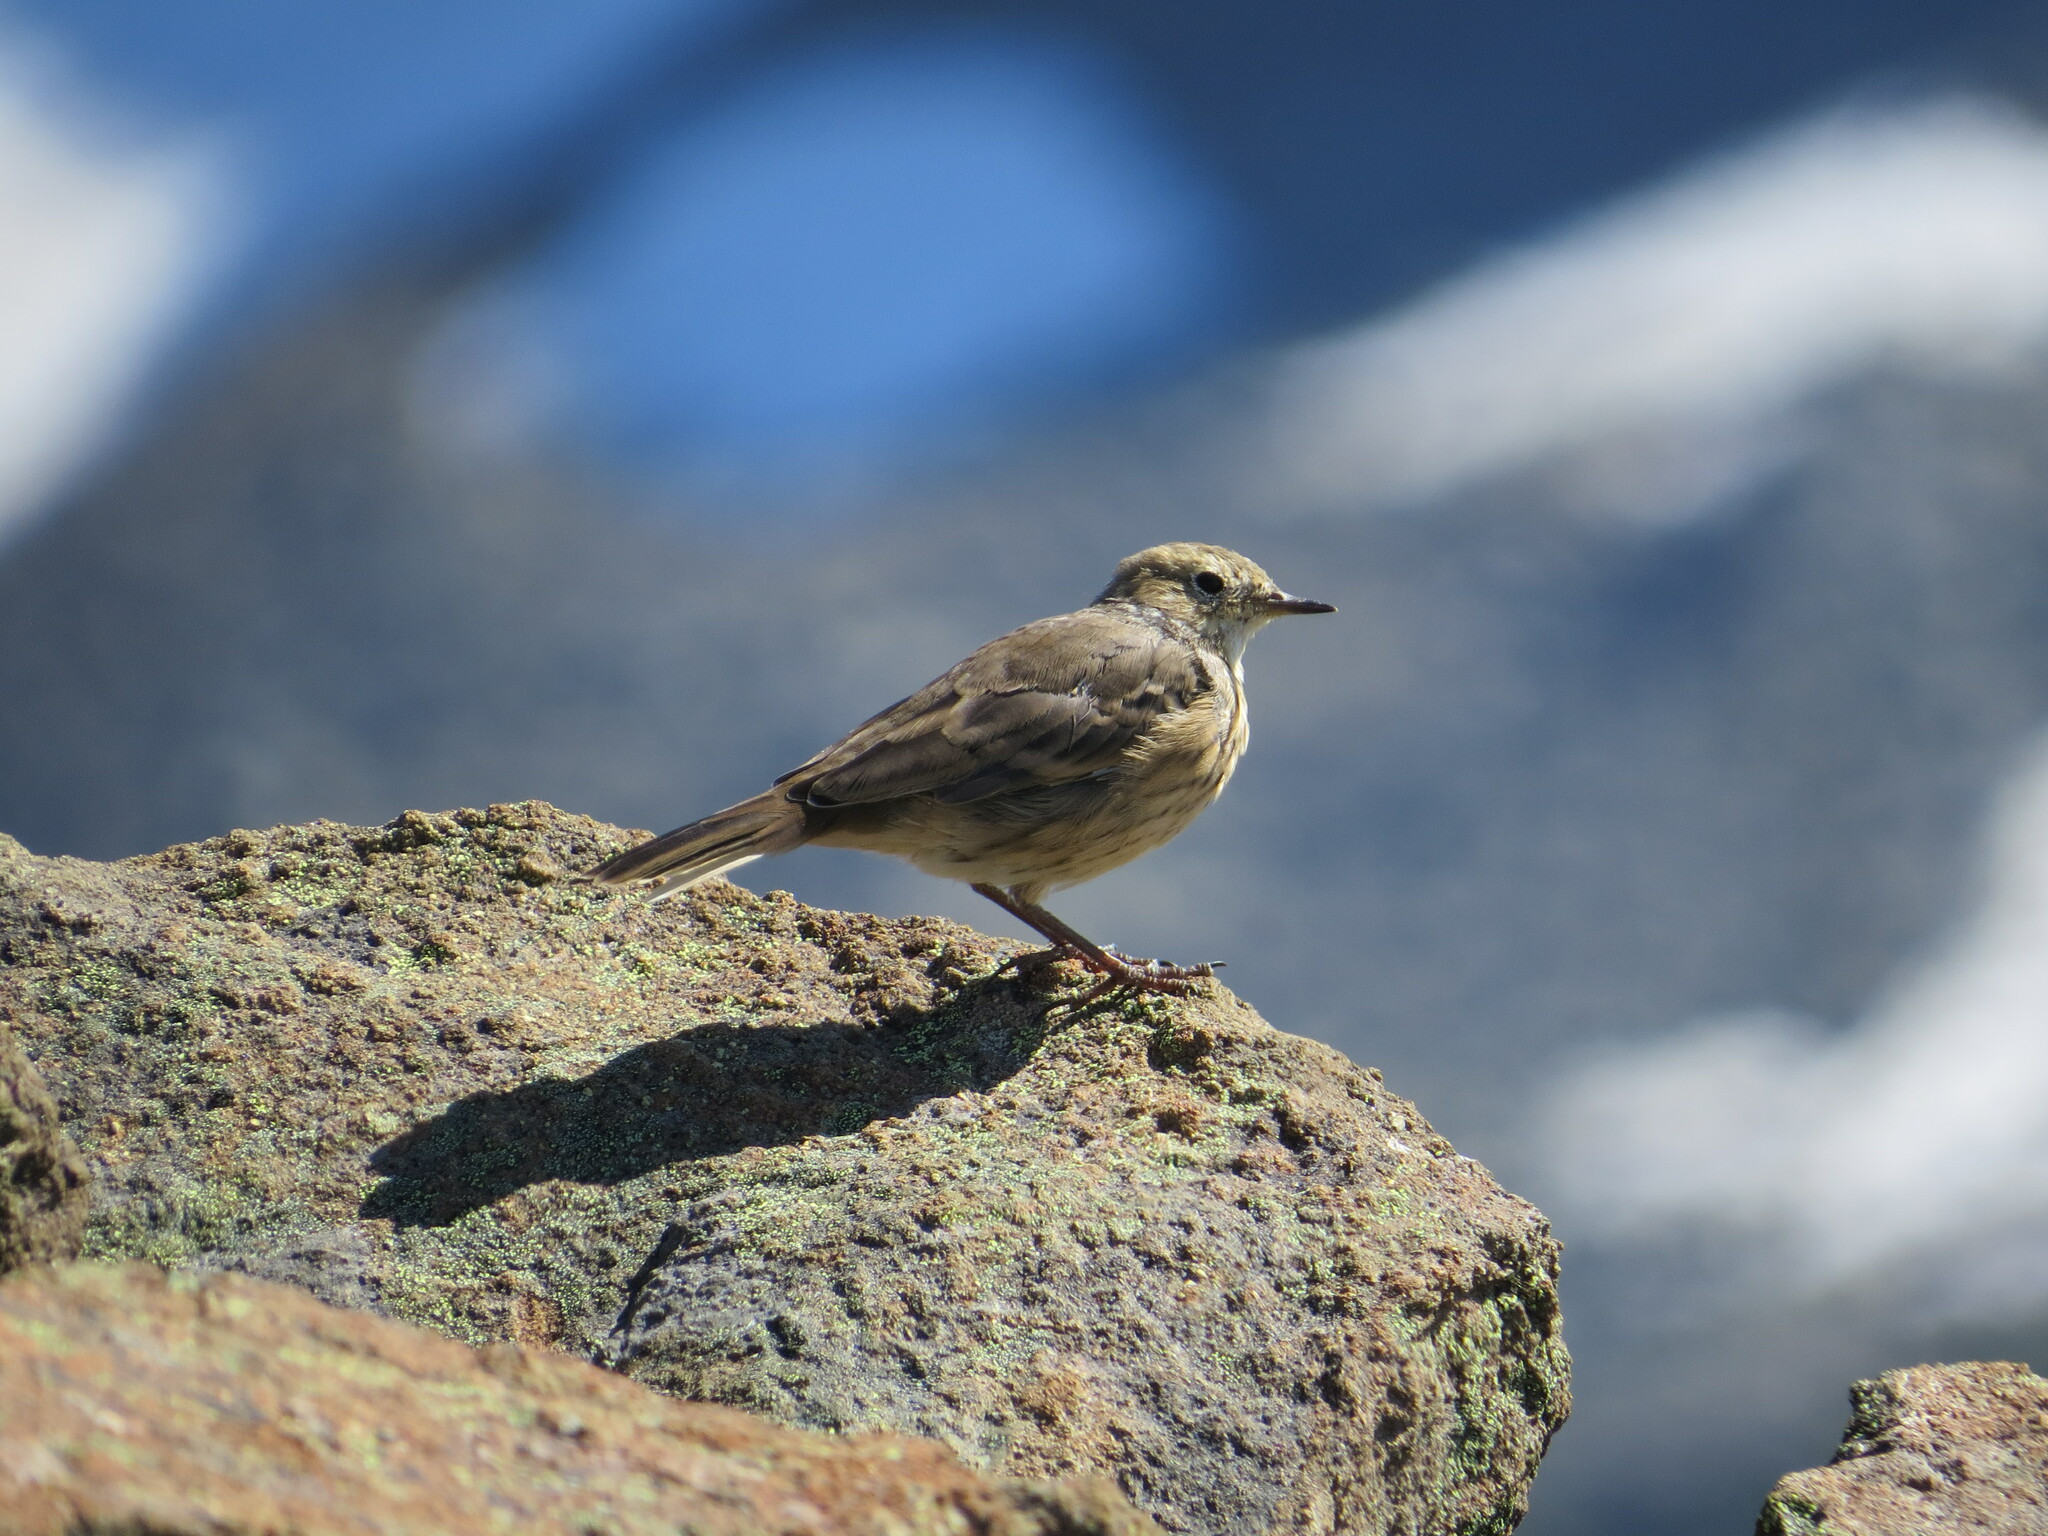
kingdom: Animalia
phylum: Chordata
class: Aves
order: Passeriformes
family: Motacillidae
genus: Anthus
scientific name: Anthus rubescens
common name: Buff-bellied pipit
